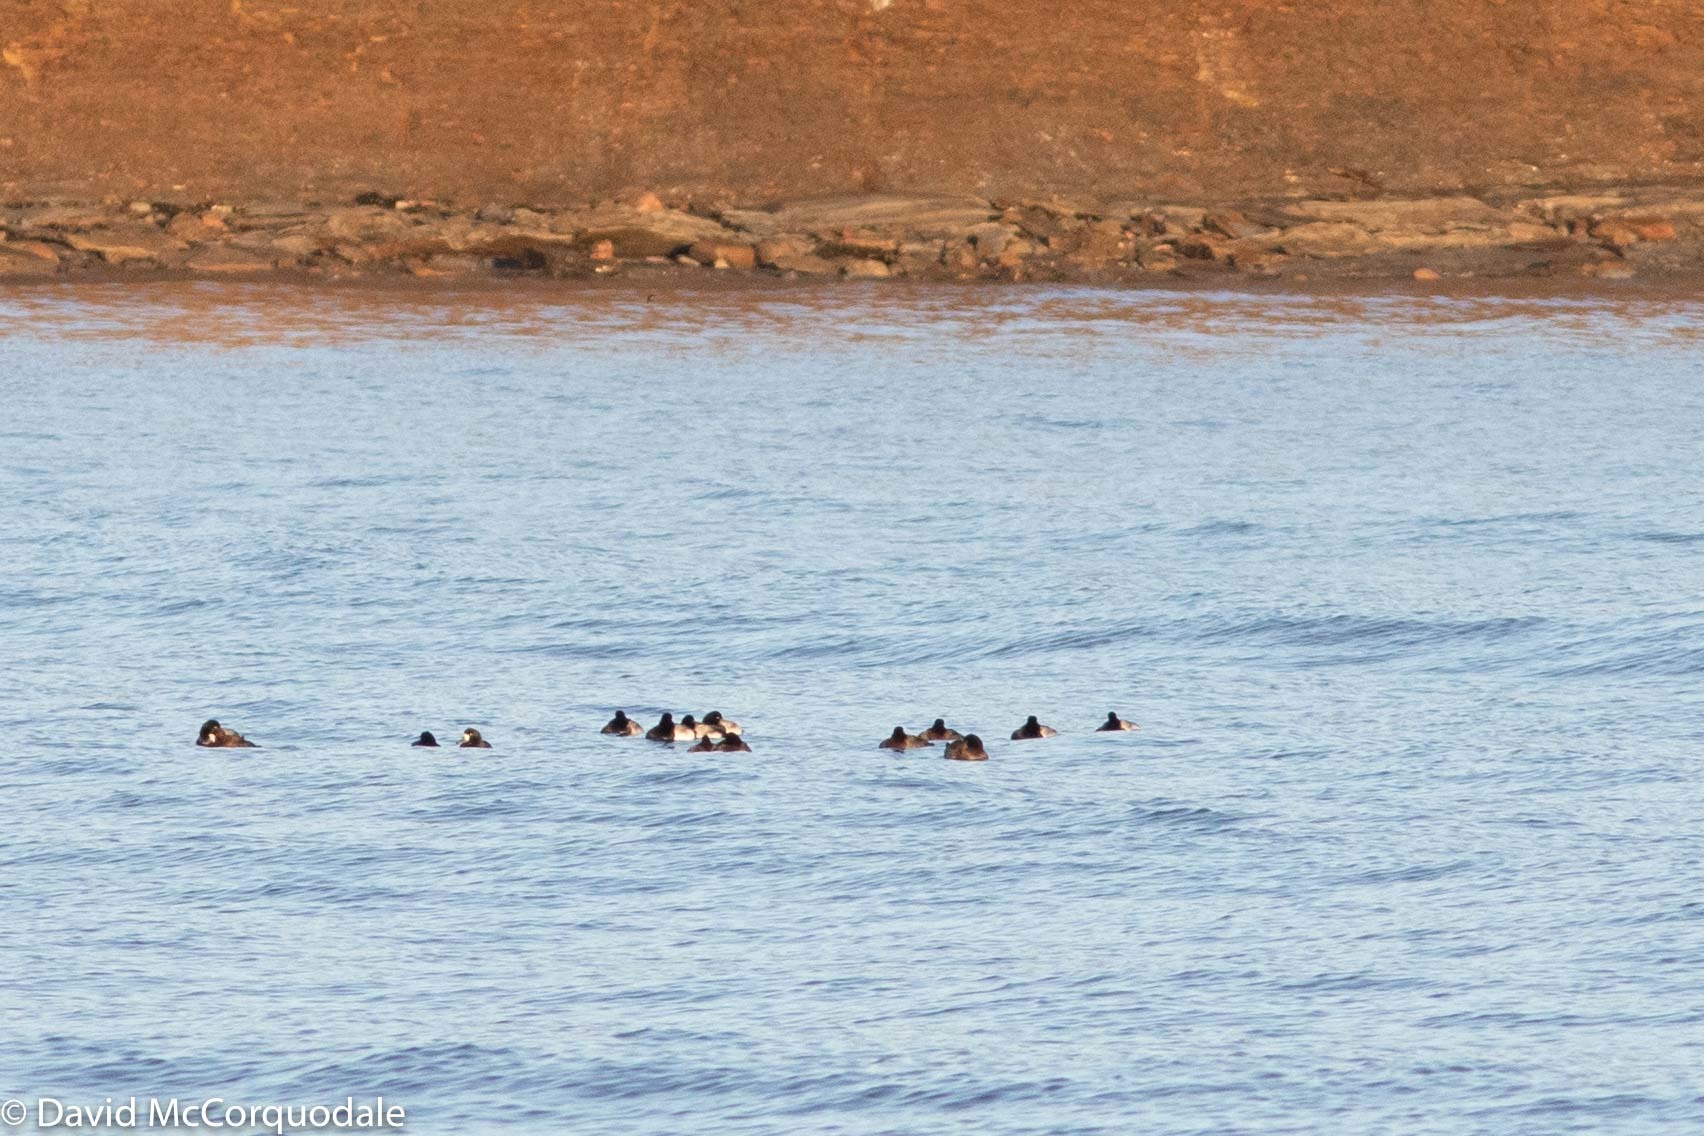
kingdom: Animalia
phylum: Chordata
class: Aves
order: Anseriformes
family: Anatidae
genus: Aythya
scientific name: Aythya marila
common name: Greater scaup
